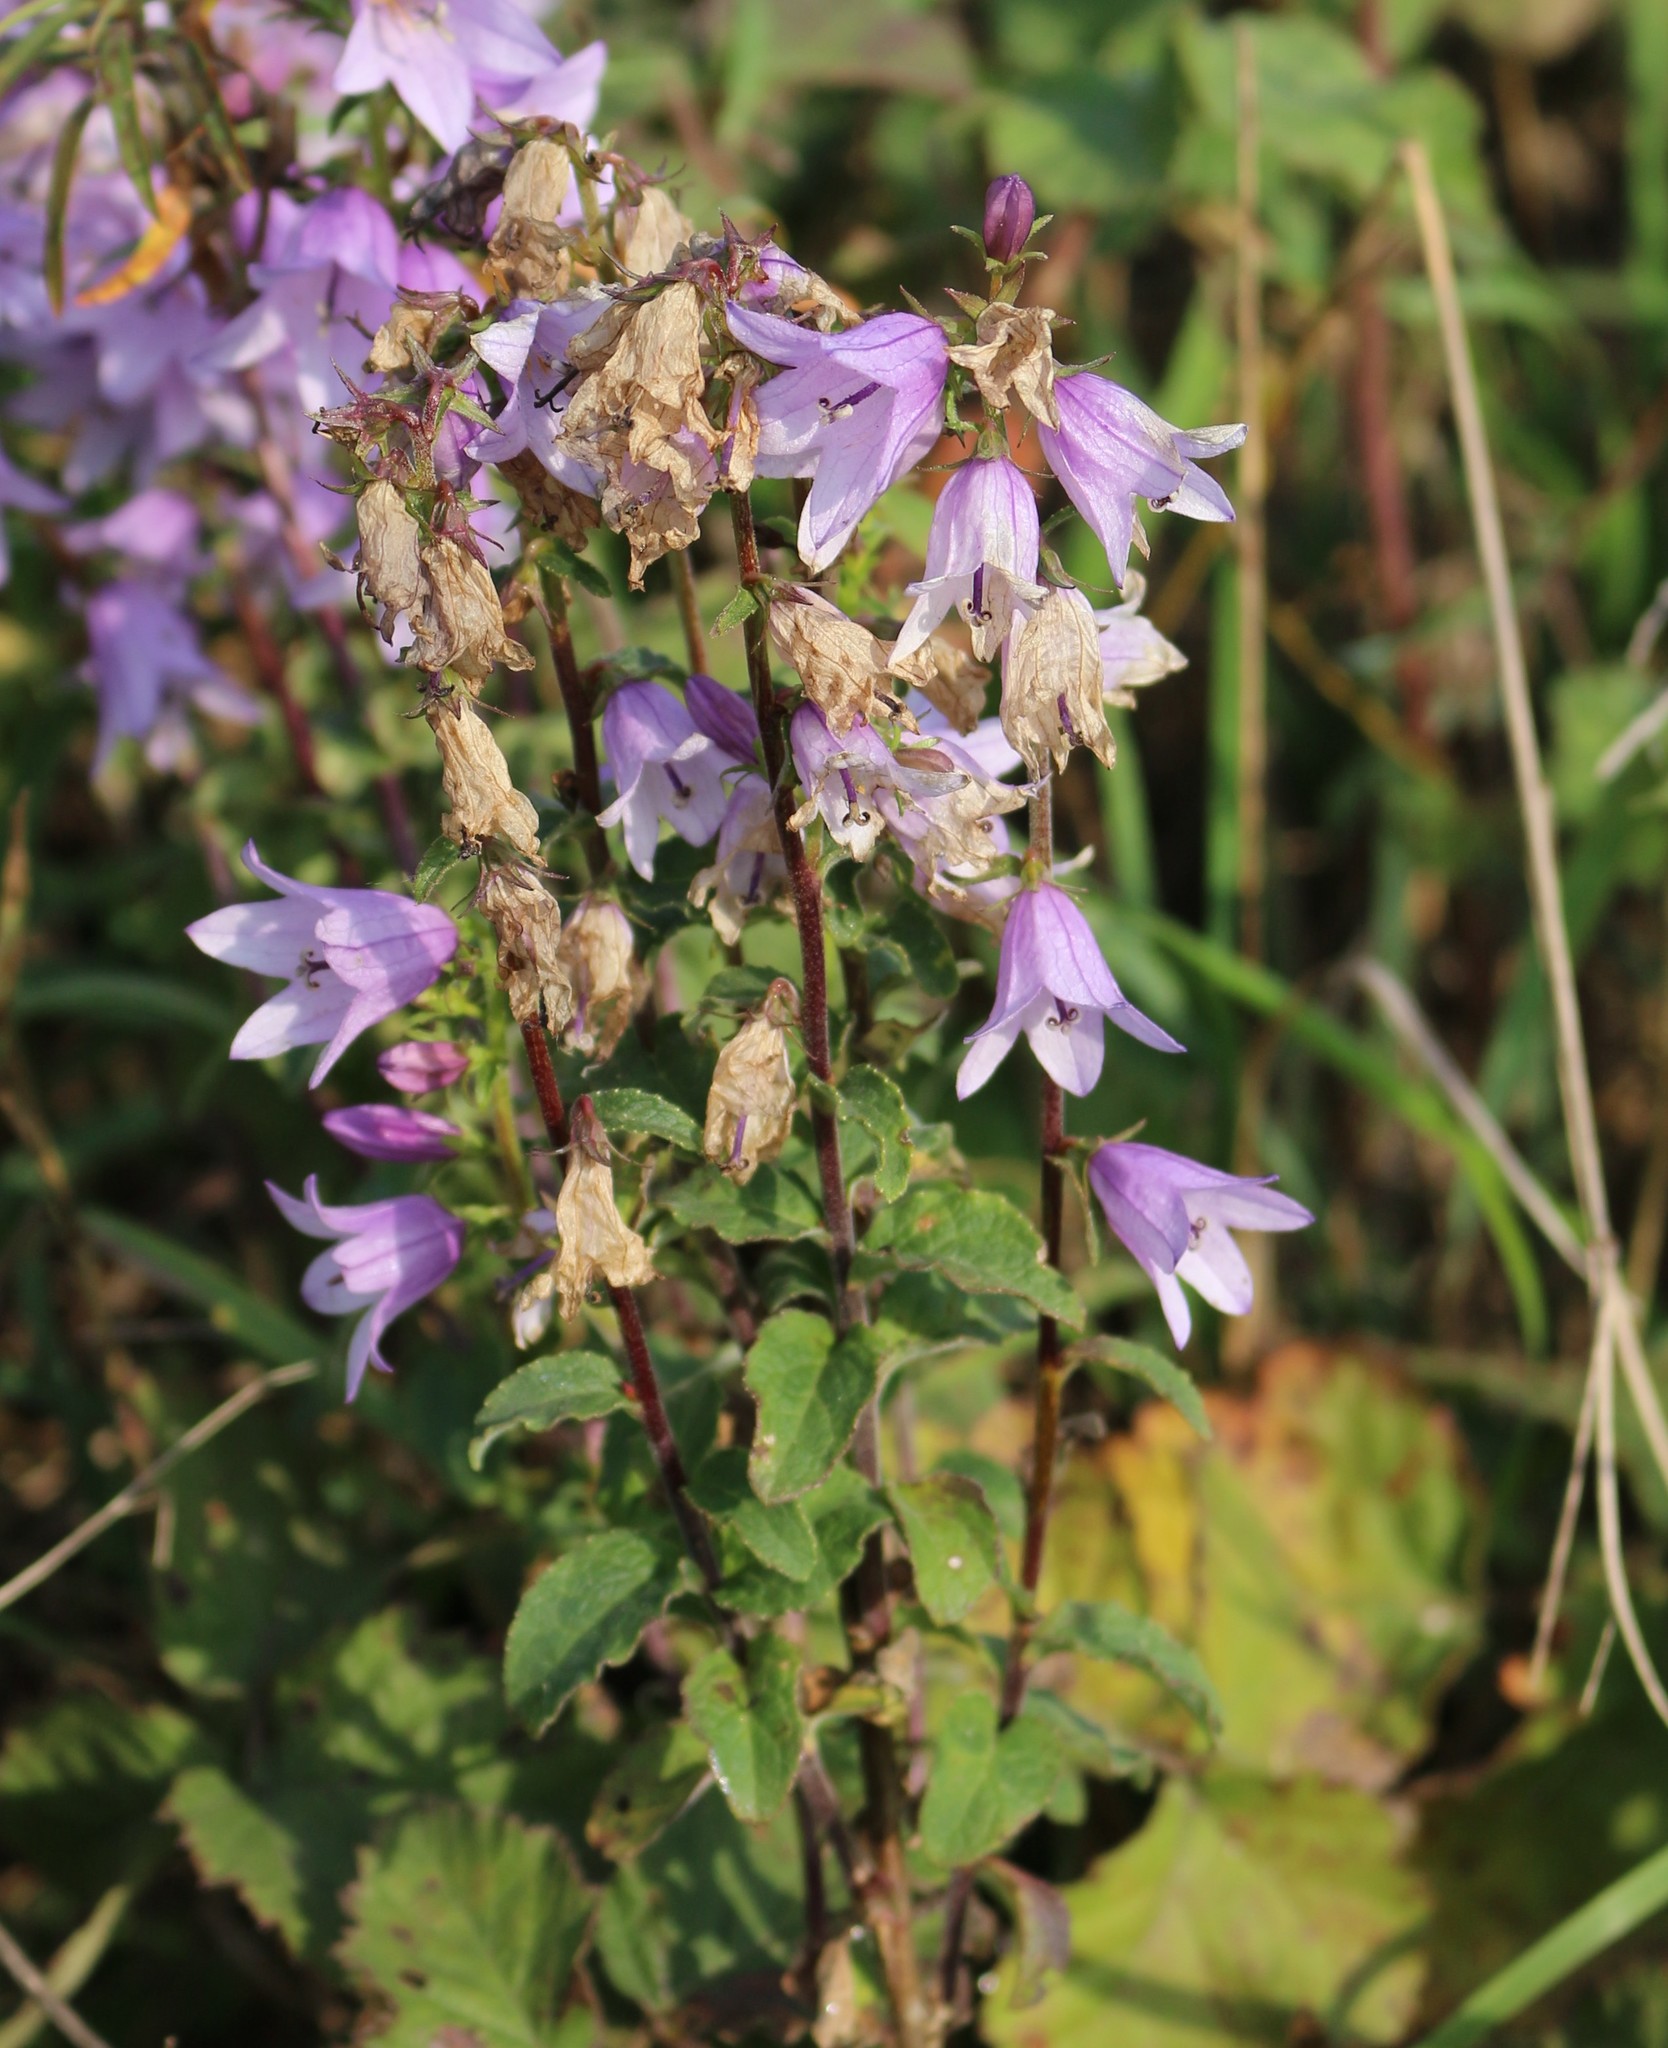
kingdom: Plantae
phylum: Tracheophyta
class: Magnoliopsida
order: Asterales
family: Campanulaceae
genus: Campanula
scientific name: Campanula bononiensis
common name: Pale bellflower
